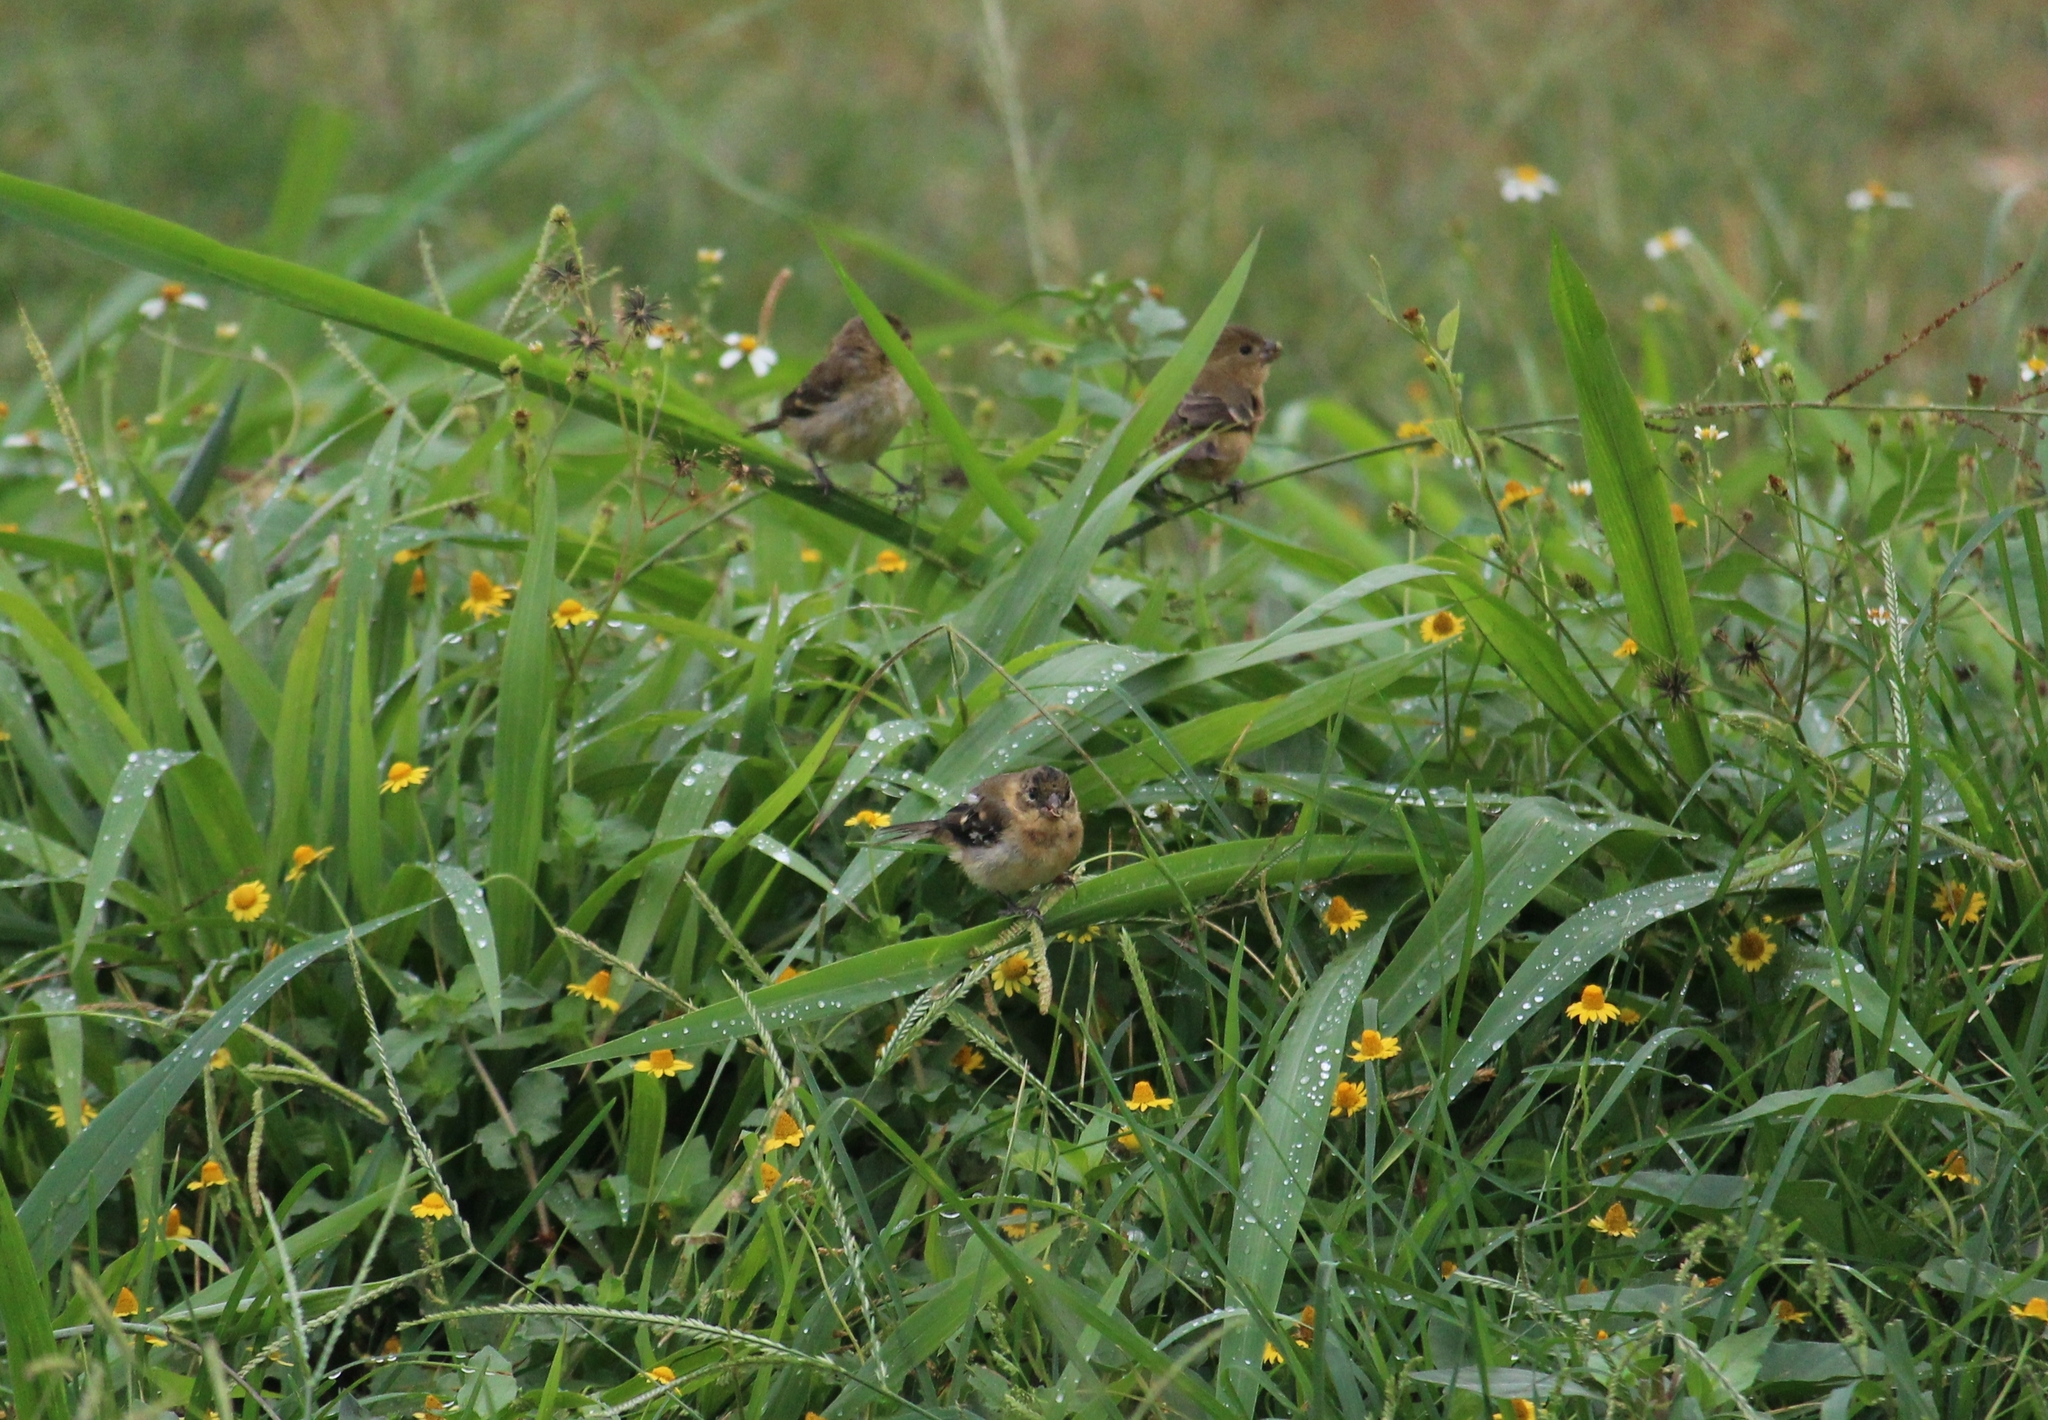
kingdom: Animalia
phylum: Chordata
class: Aves
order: Passeriformes
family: Thraupidae
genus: Sporophila
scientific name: Sporophila morelleti
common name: Morelet's seedeater
